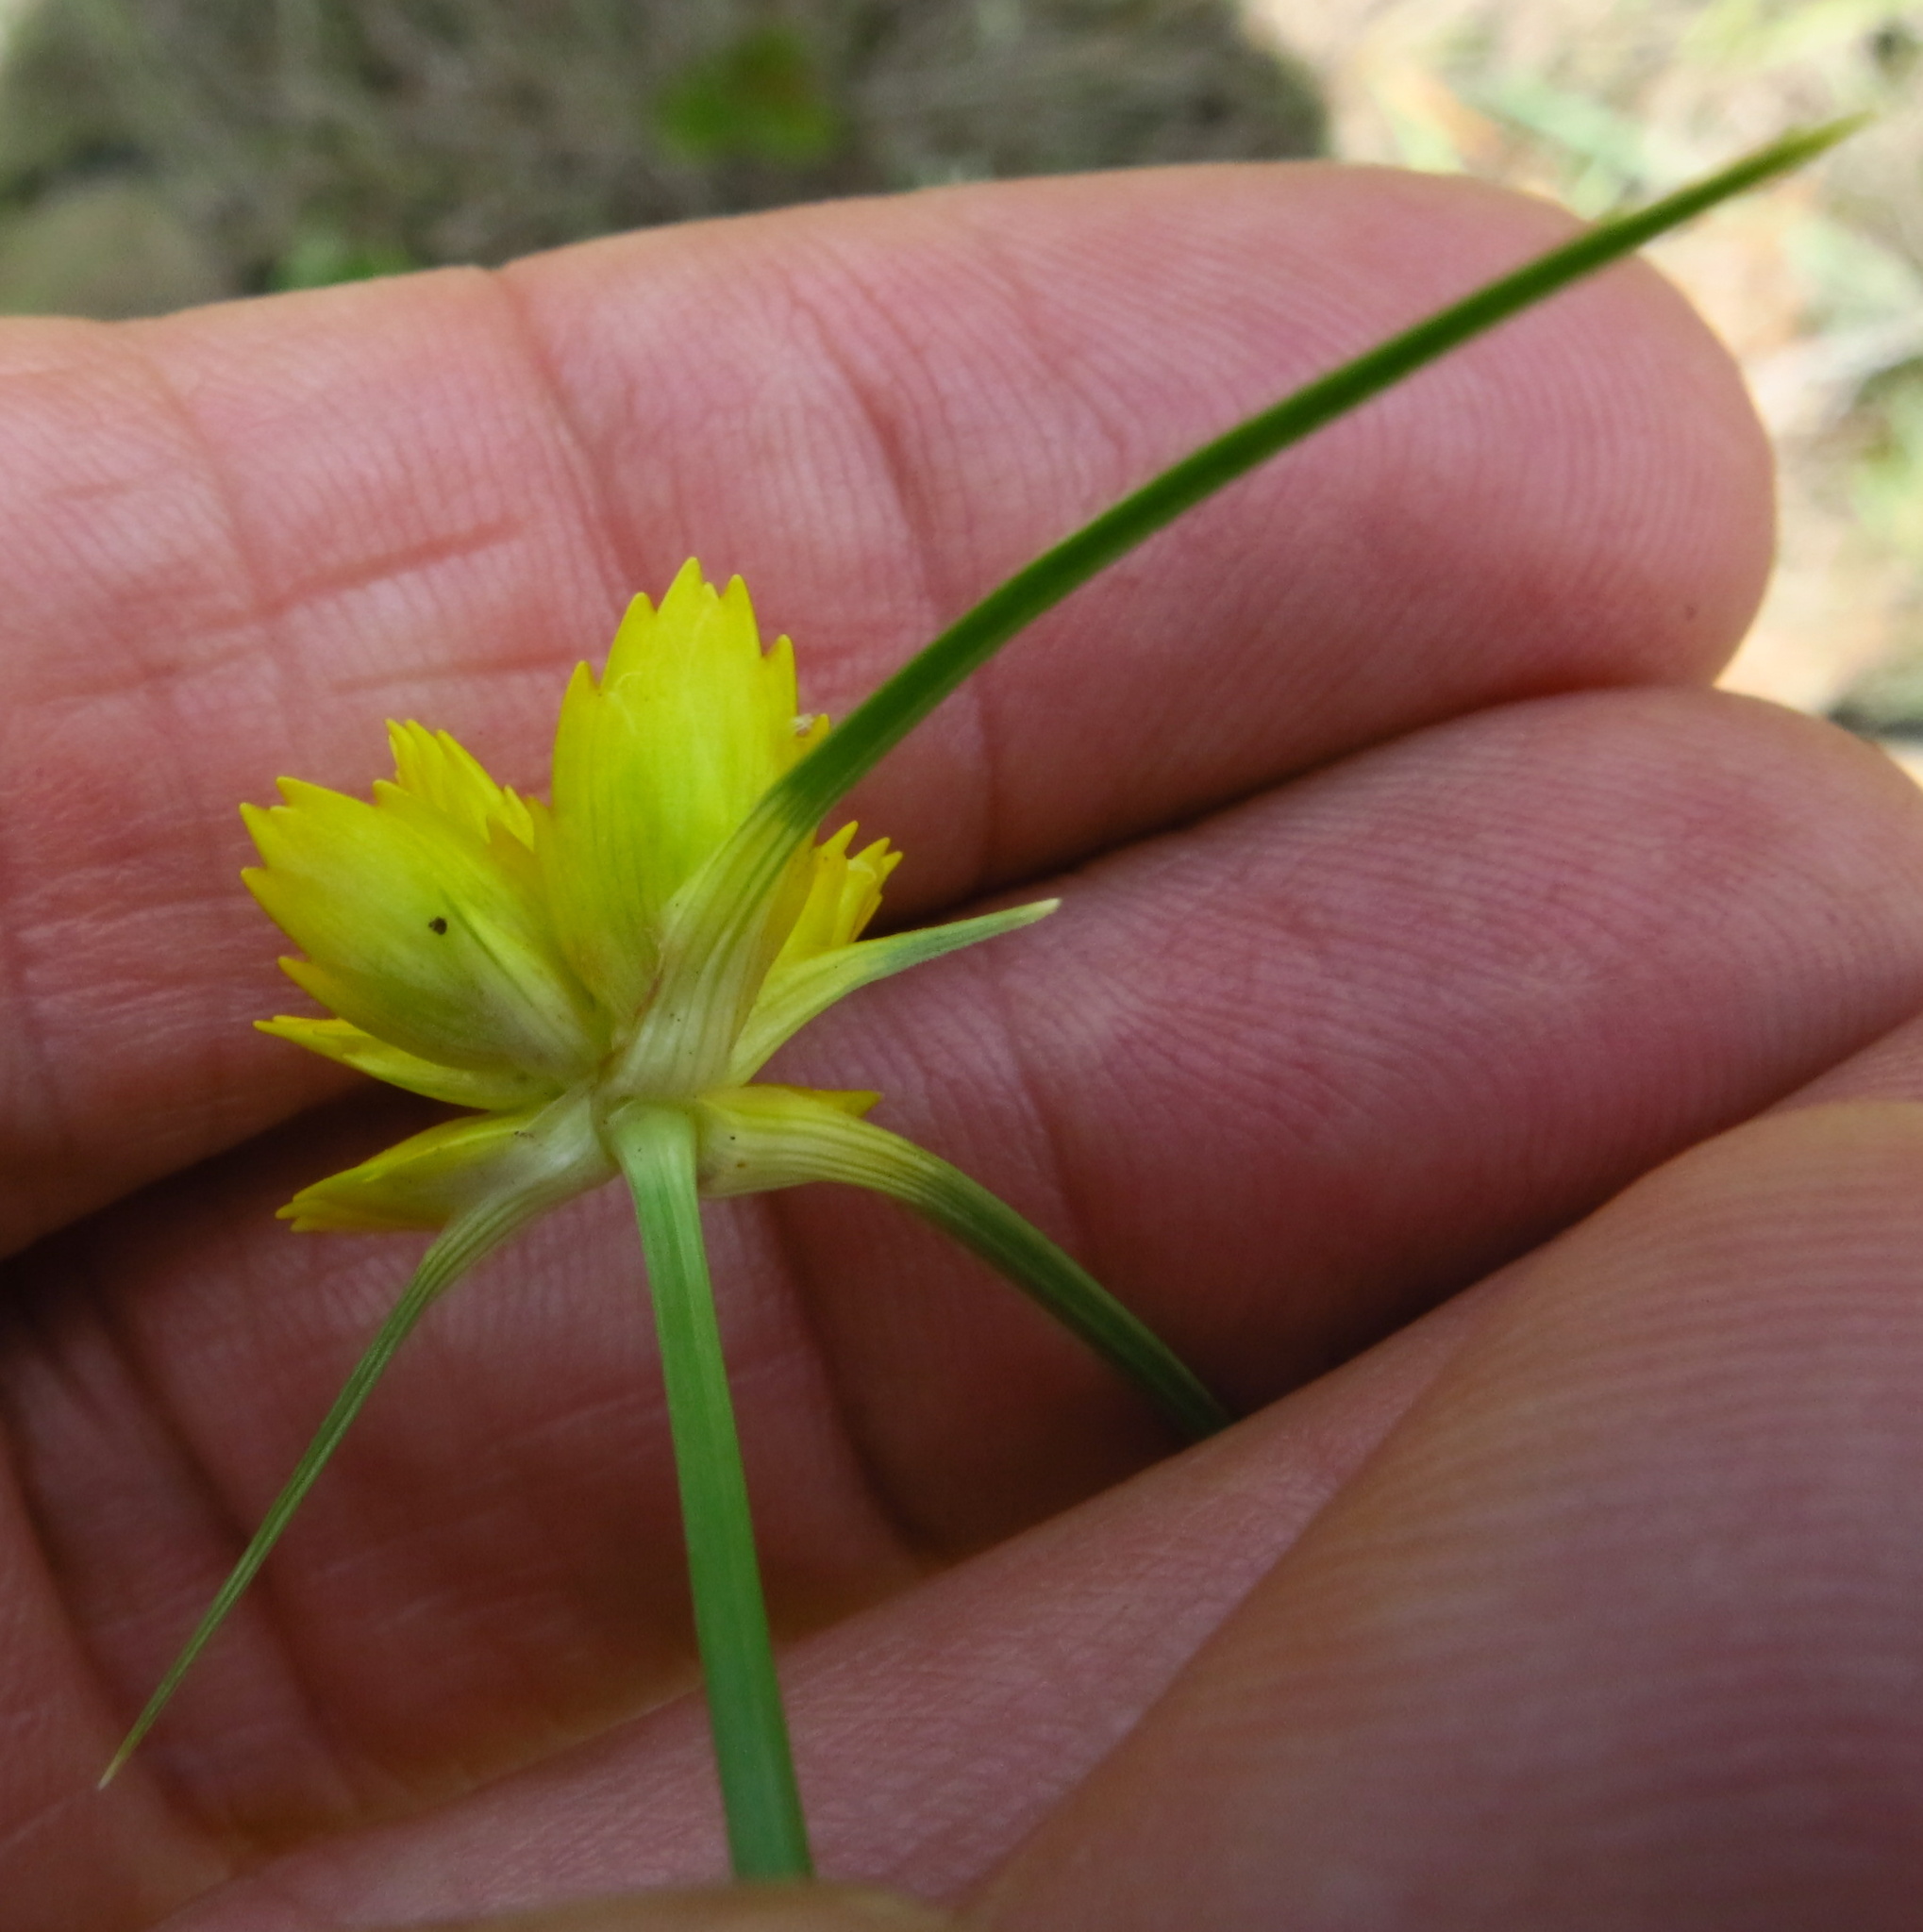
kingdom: Plantae
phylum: Tracheophyta
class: Liliopsida
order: Poales
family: Cyperaceae
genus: Cyperus
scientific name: Cyperus sphaerocephalus
